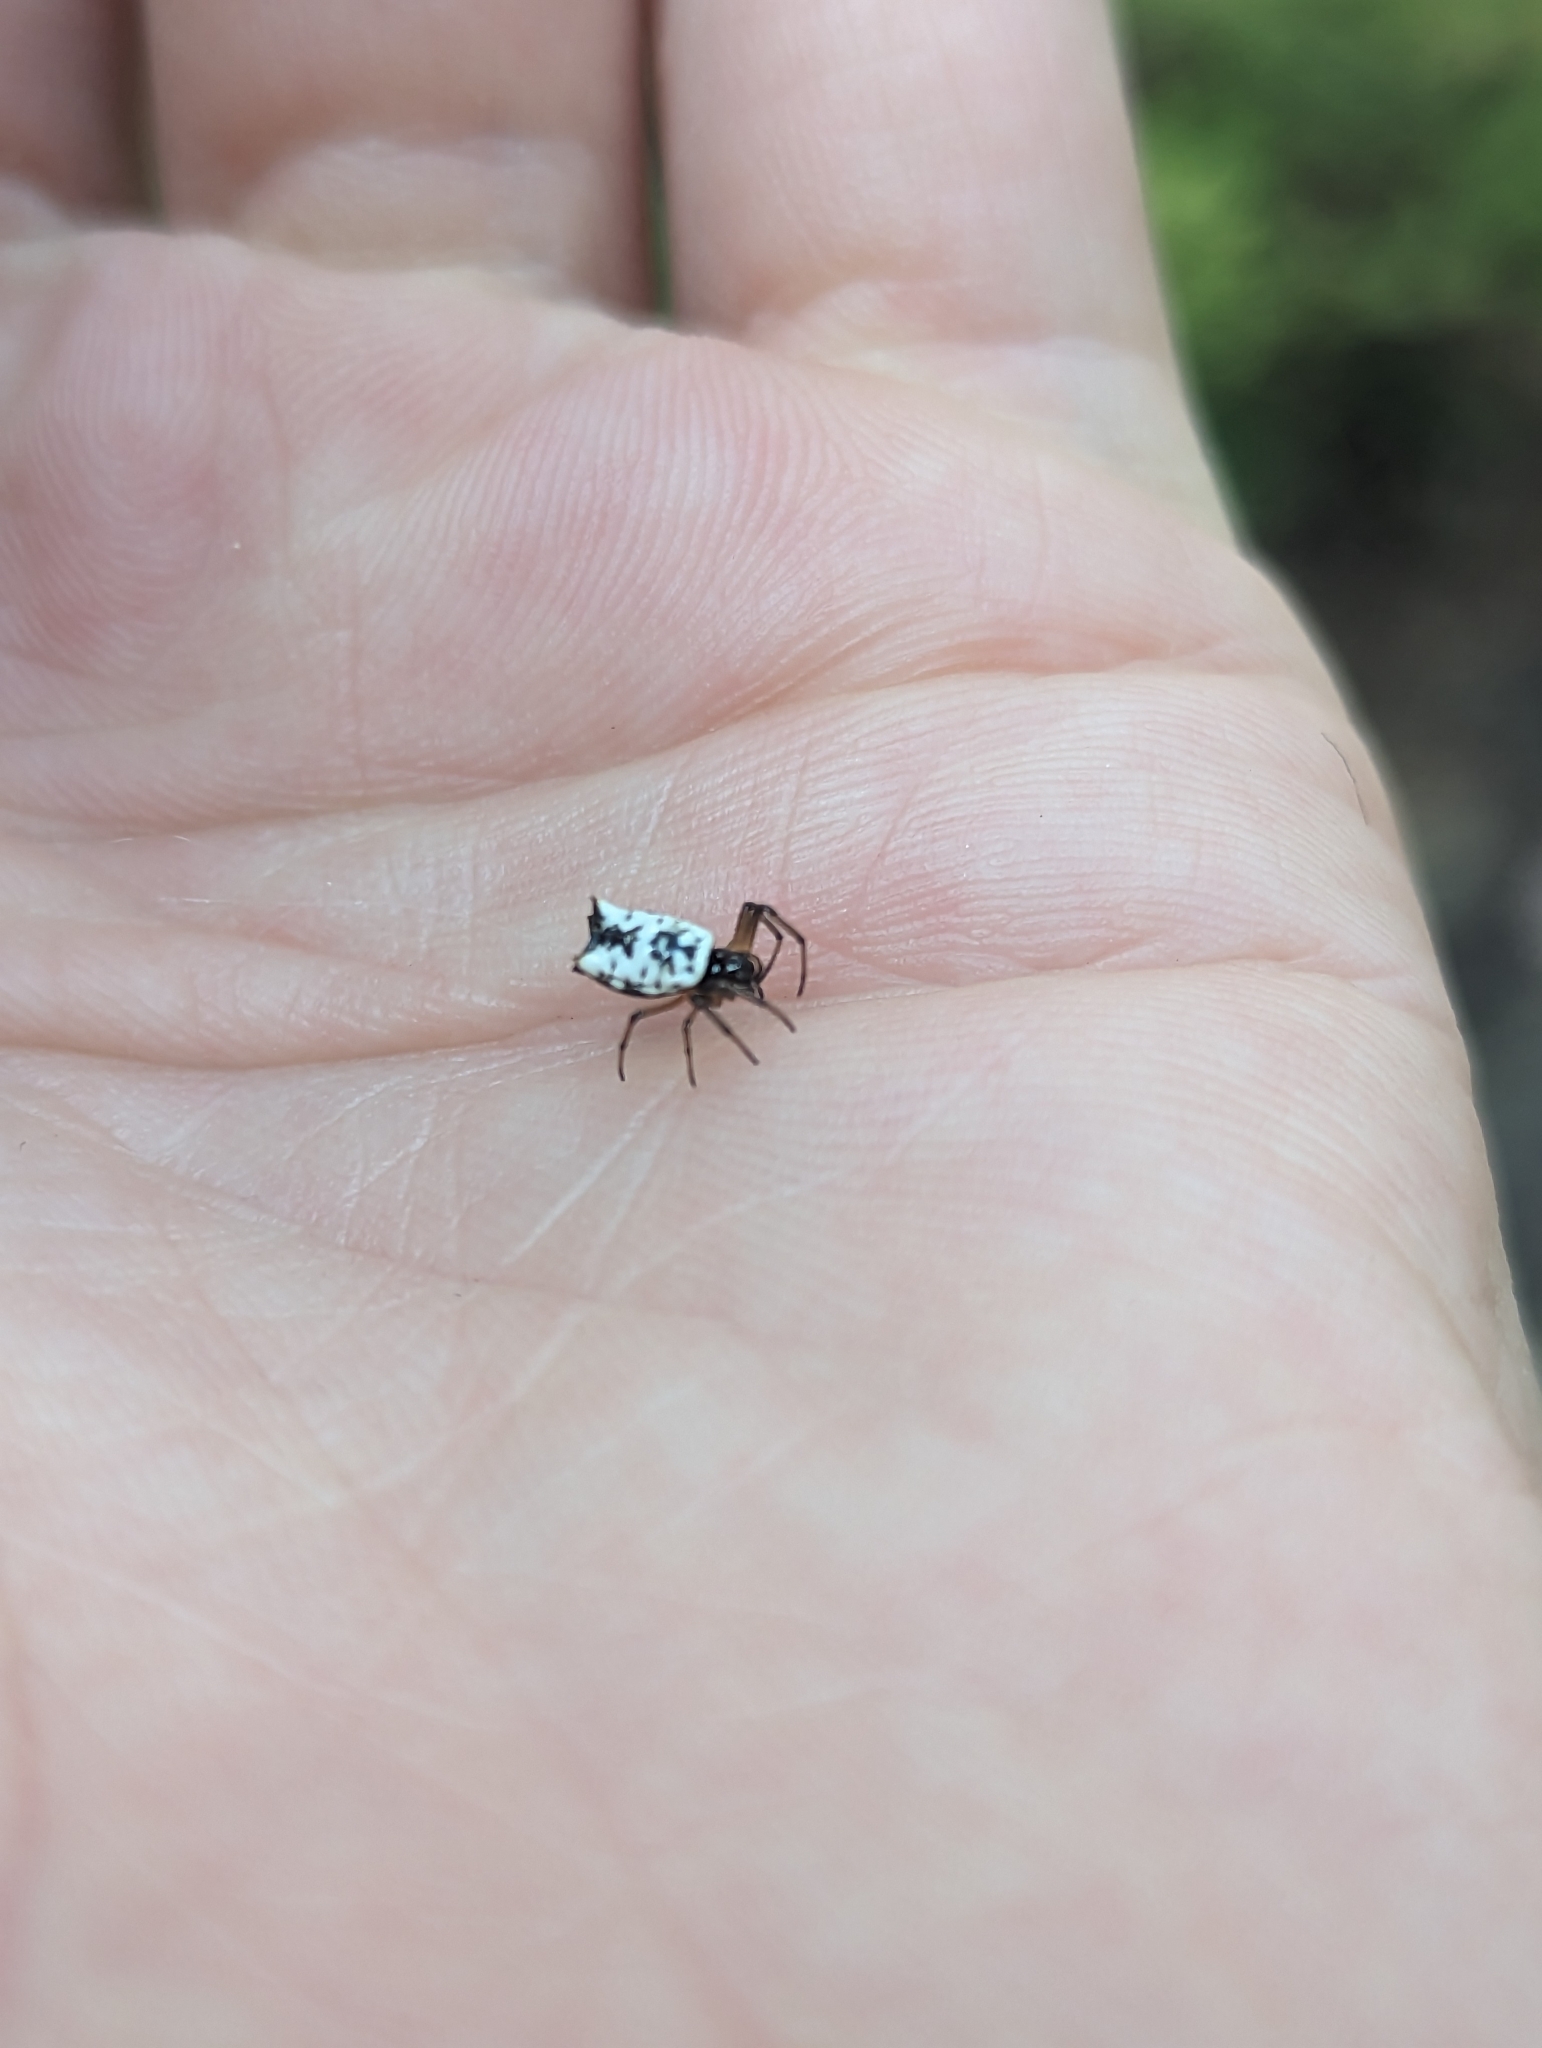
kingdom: Animalia
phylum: Arthropoda
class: Arachnida
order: Araneae
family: Araneidae
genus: Micrathena
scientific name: Micrathena mitrata
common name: Orb weavers
